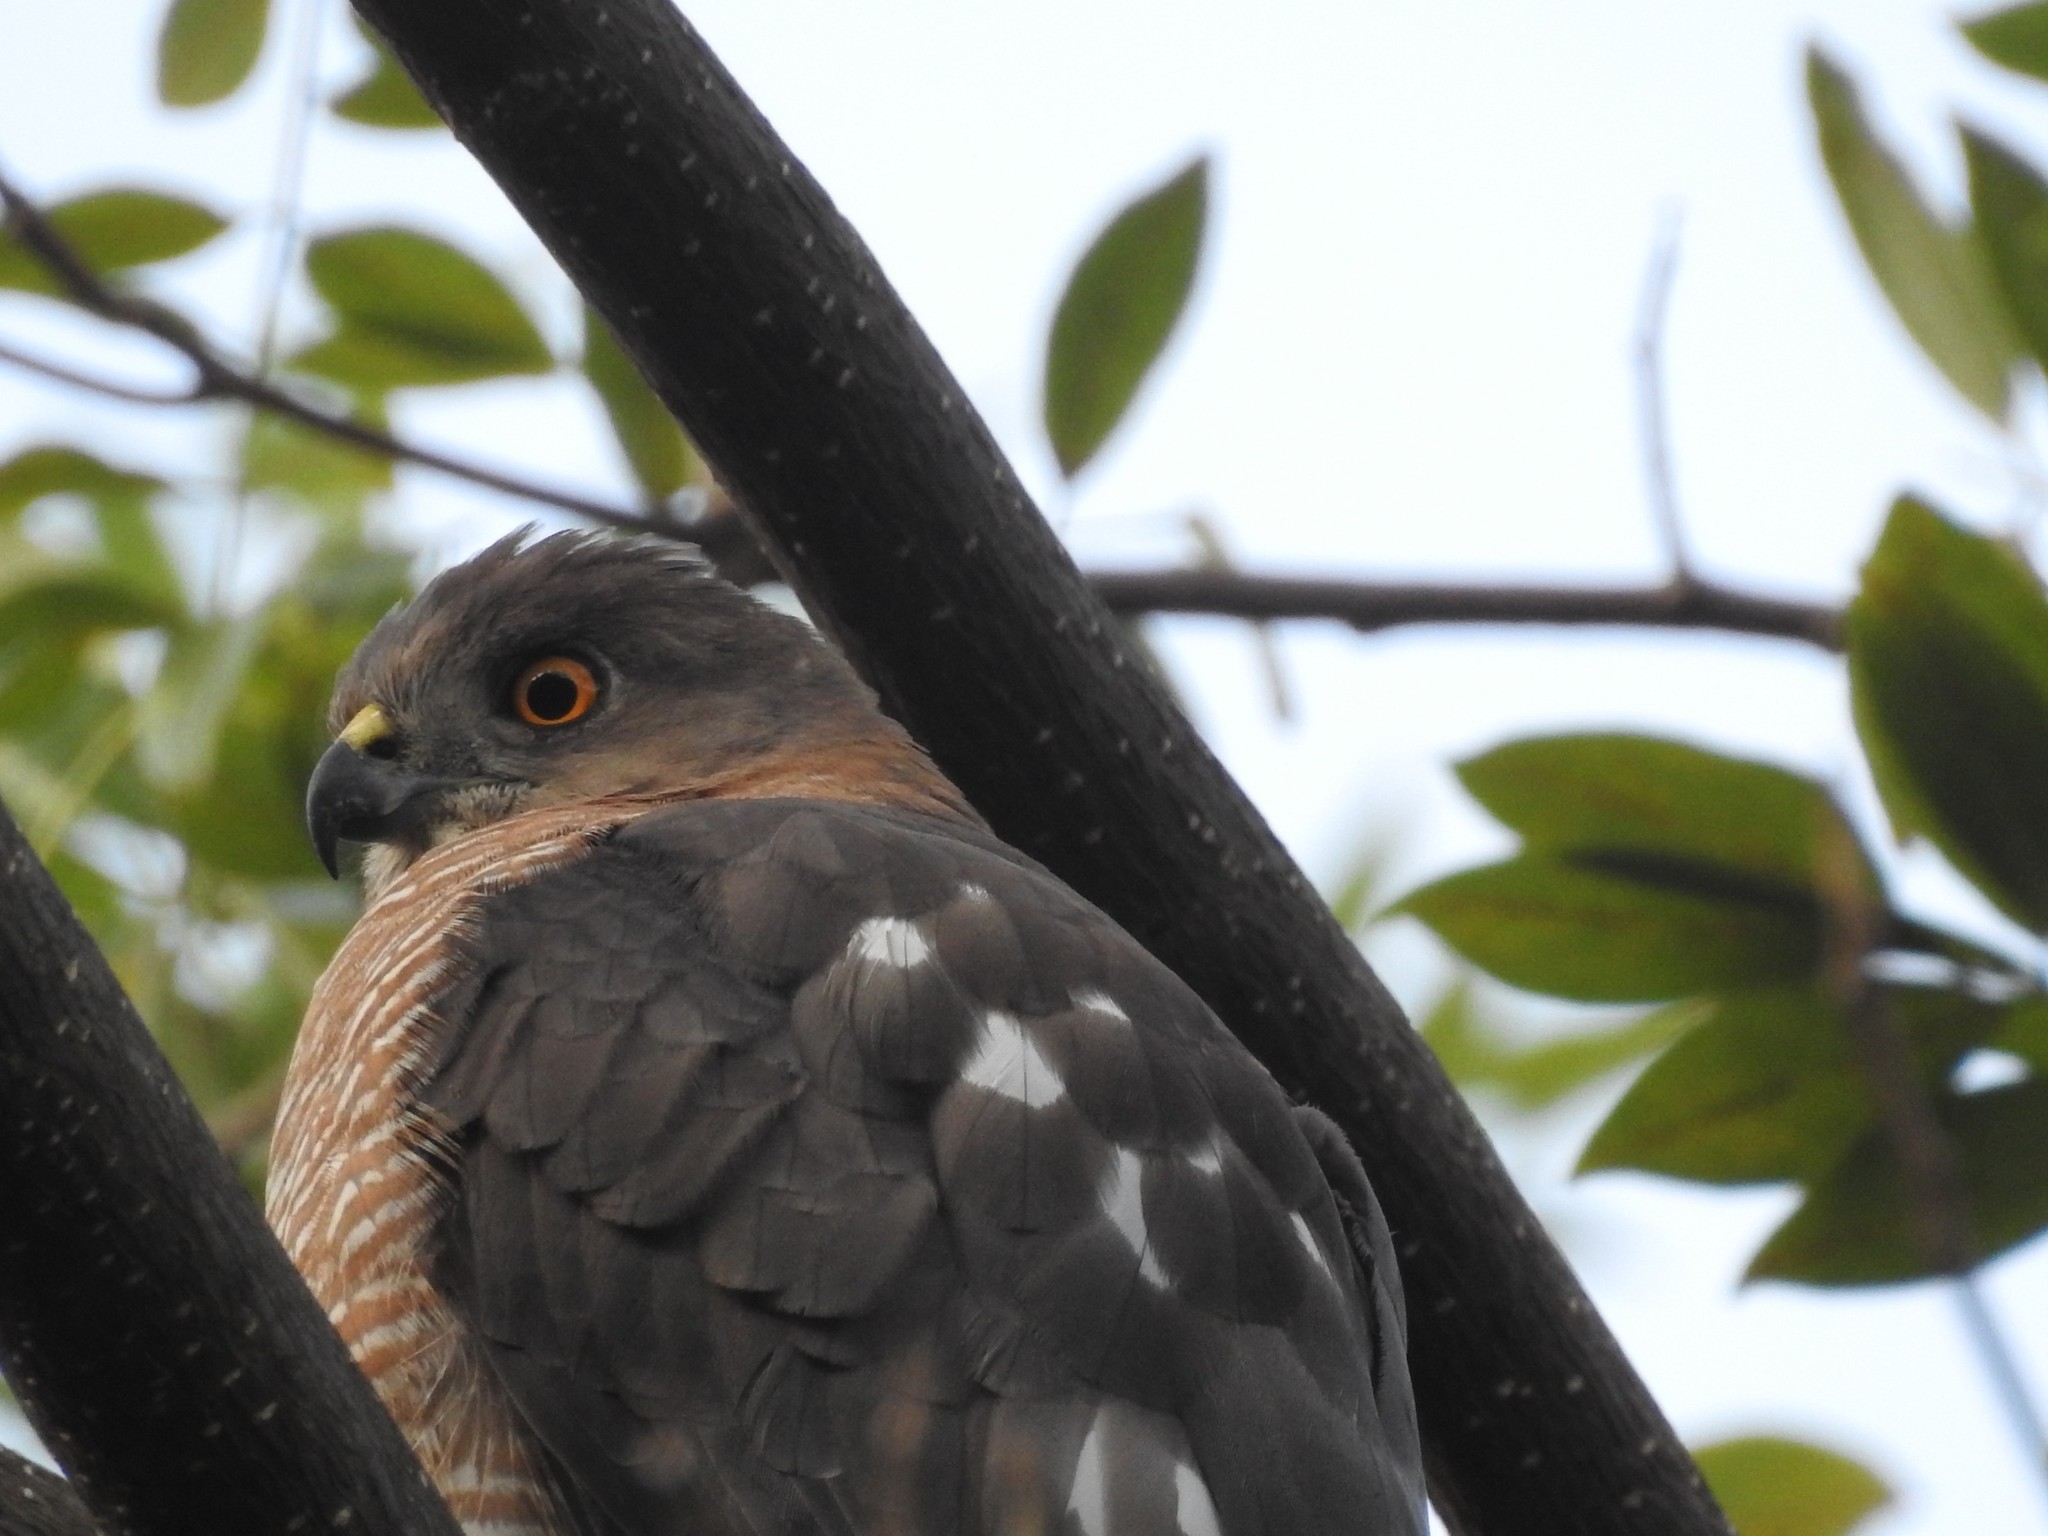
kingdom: Animalia
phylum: Chordata
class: Aves
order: Accipitriformes
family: Accipitridae
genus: Accipiter
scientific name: Accipiter badius
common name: Shikra
